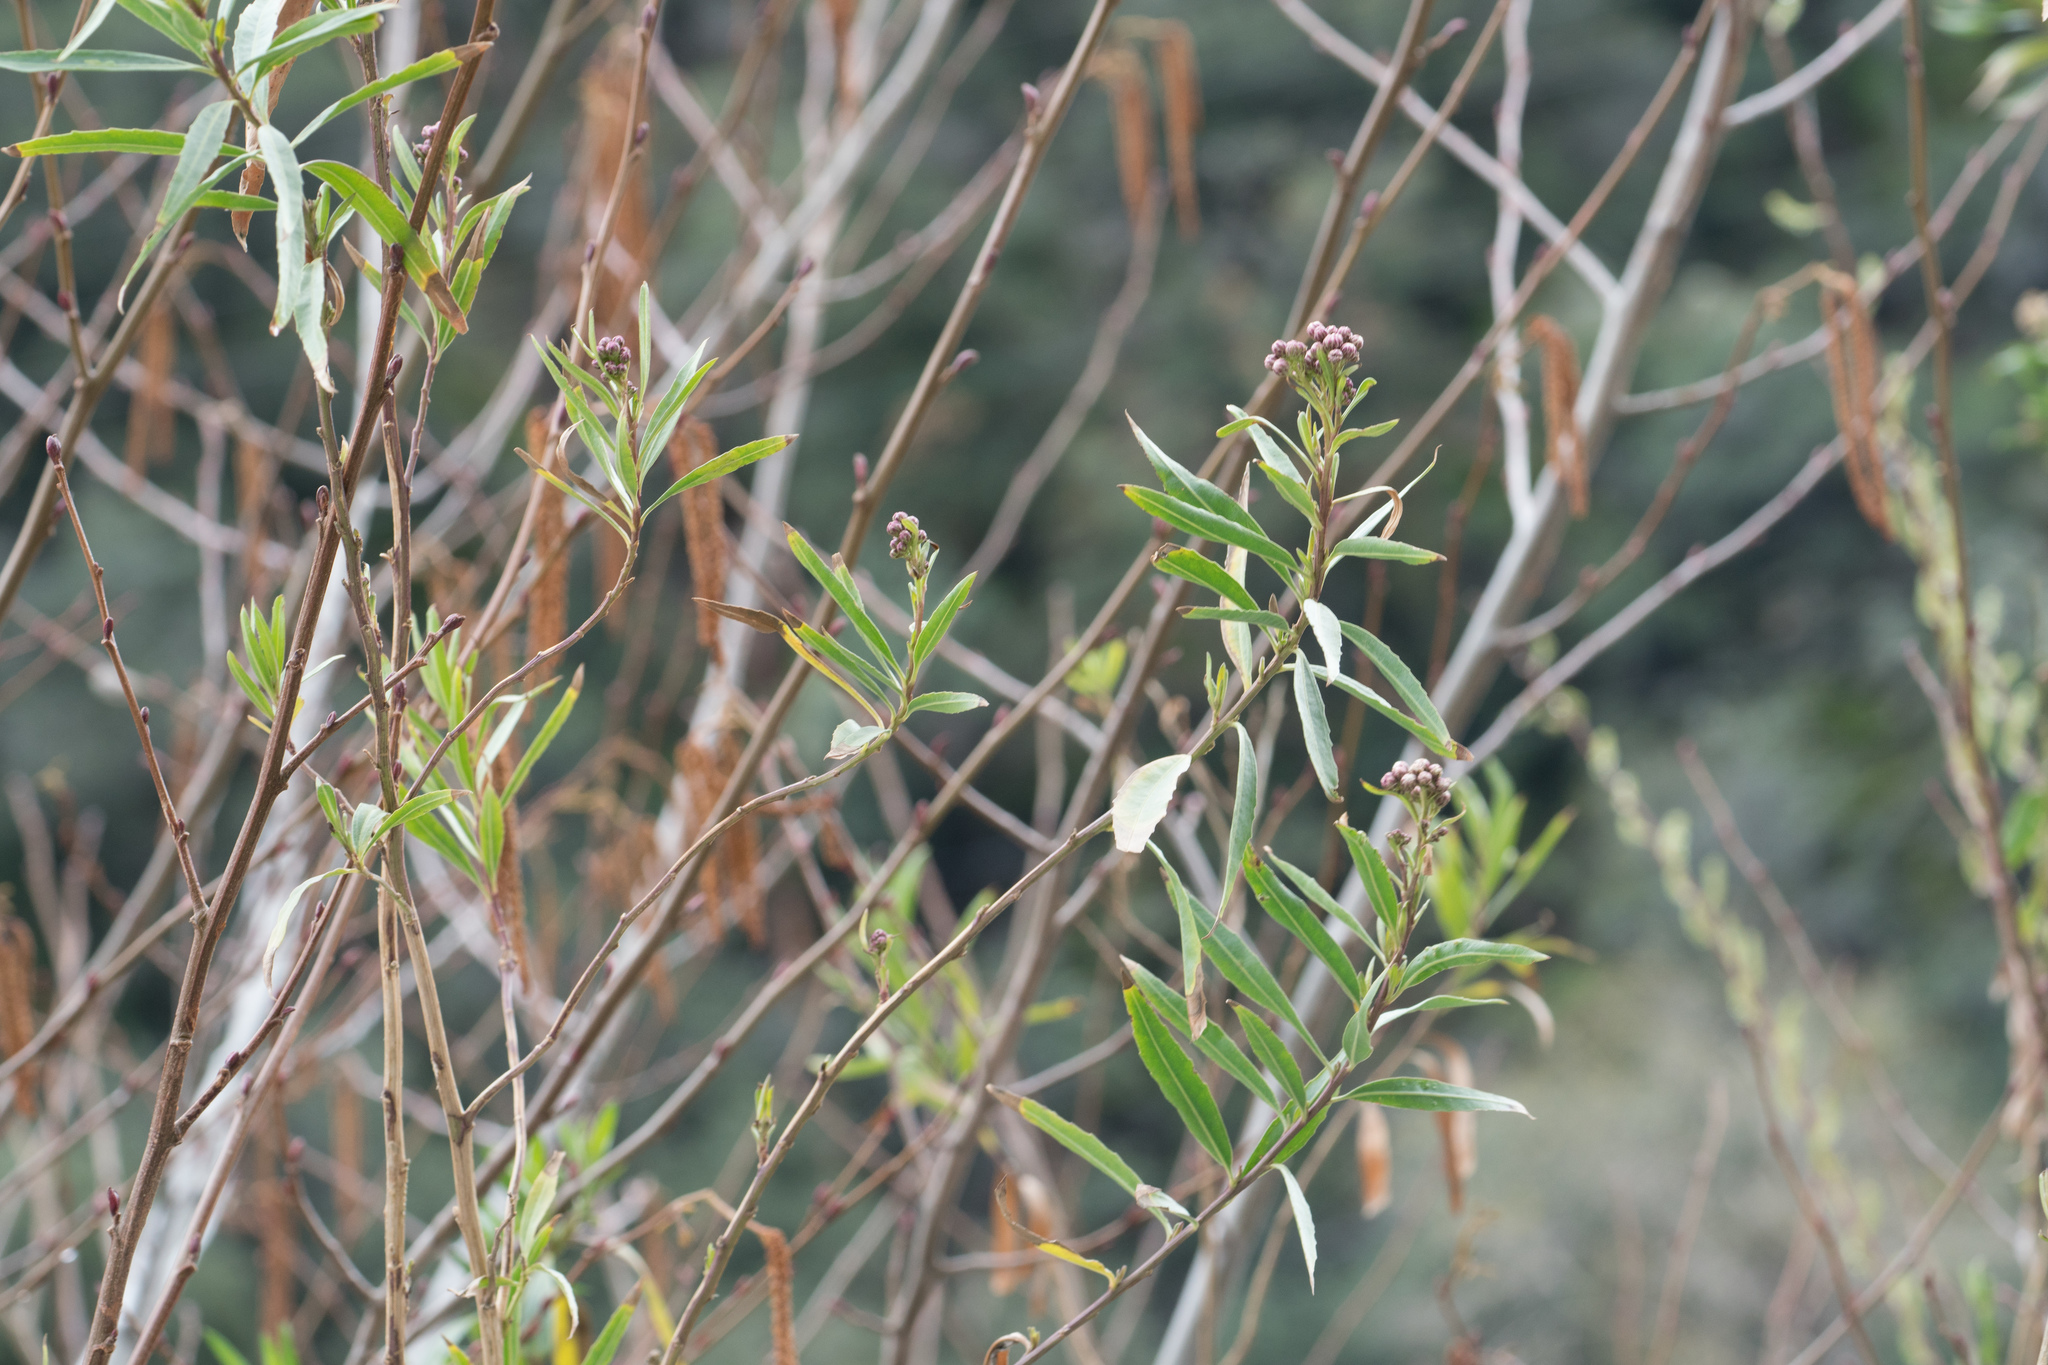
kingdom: Plantae
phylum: Tracheophyta
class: Magnoliopsida
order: Asterales
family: Asteraceae
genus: Baccharis
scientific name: Baccharis salicifolia
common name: Sticky baccharis
